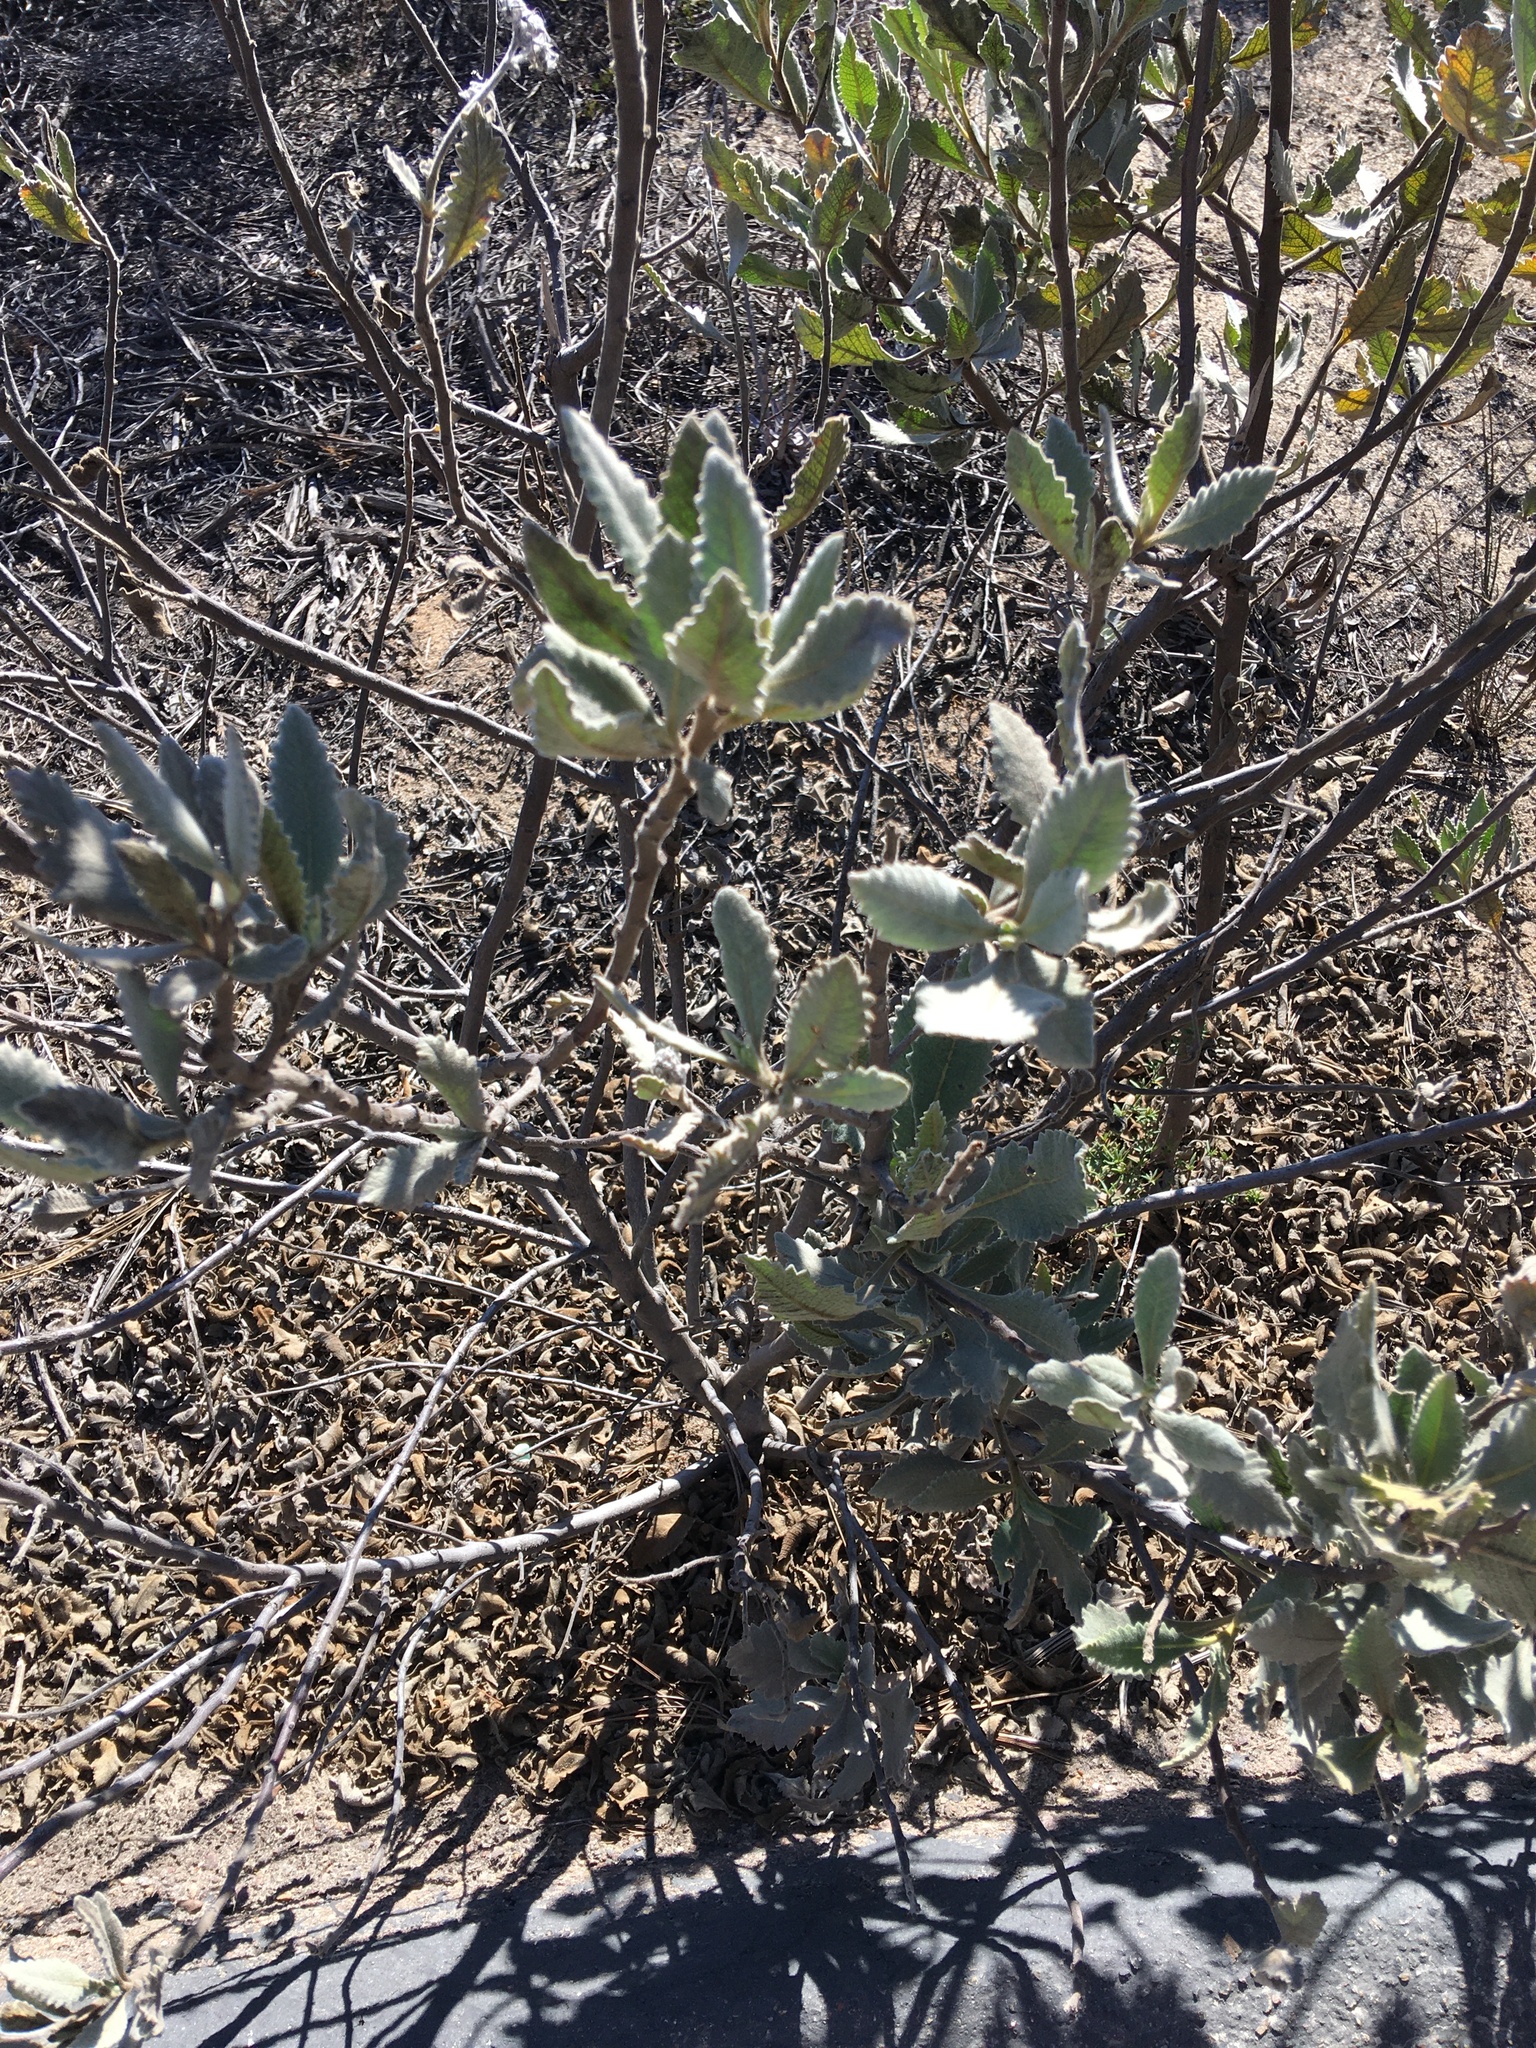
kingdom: Plantae
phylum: Tracheophyta
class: Magnoliopsida
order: Boraginales
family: Namaceae
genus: Eriodictyon
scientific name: Eriodictyon crassifolium
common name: Thick-leaf yerba-santa
